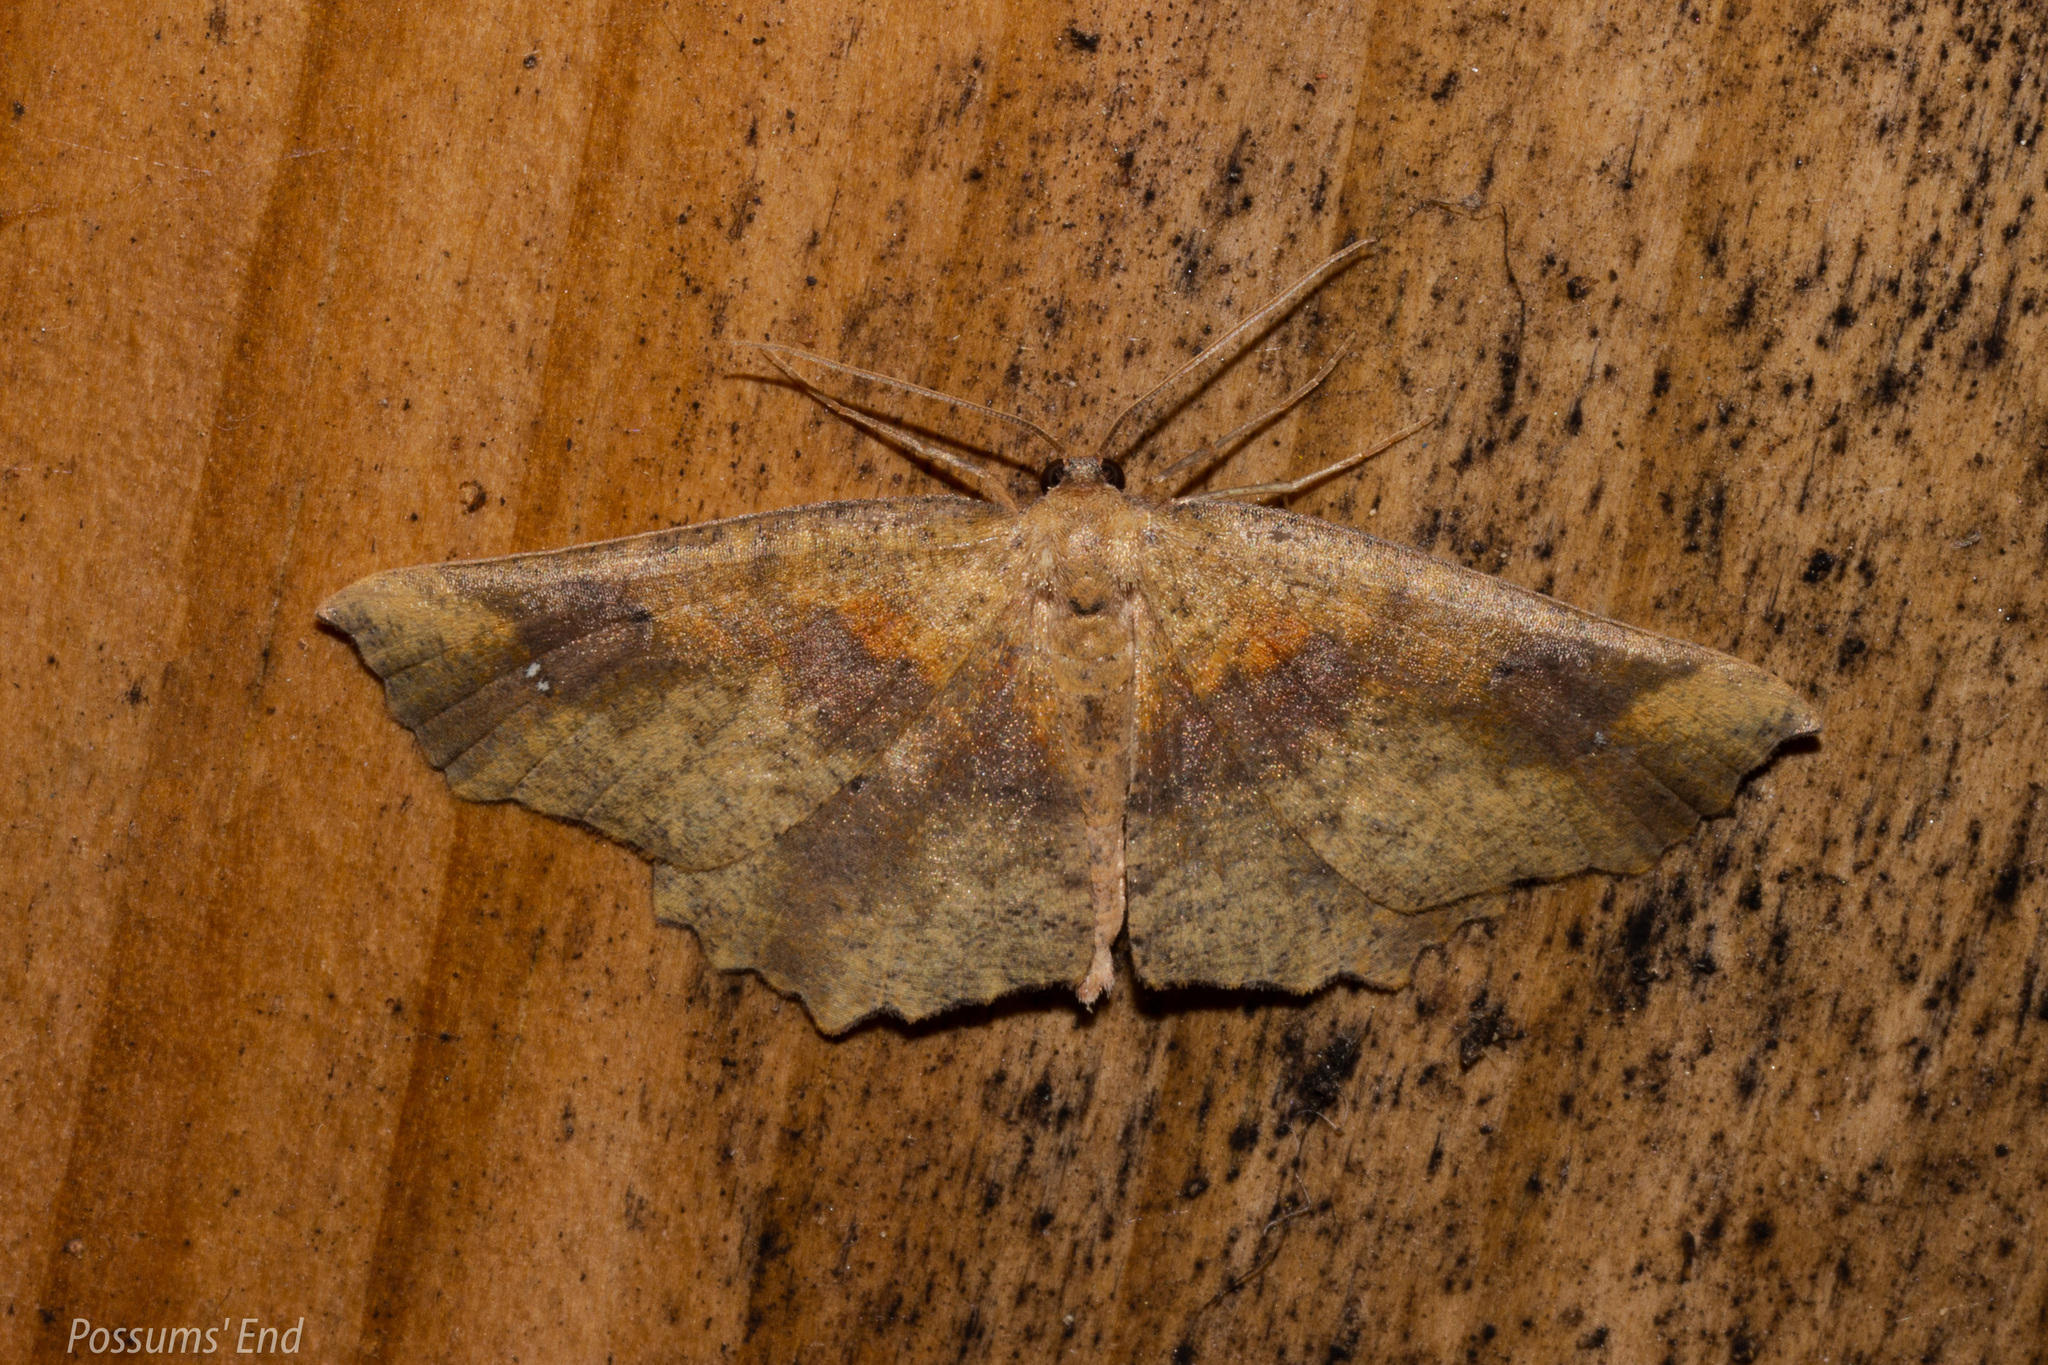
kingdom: Animalia
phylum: Arthropoda
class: Insecta
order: Lepidoptera
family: Geometridae
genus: Xyridacma
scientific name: Xyridacma ustaria
